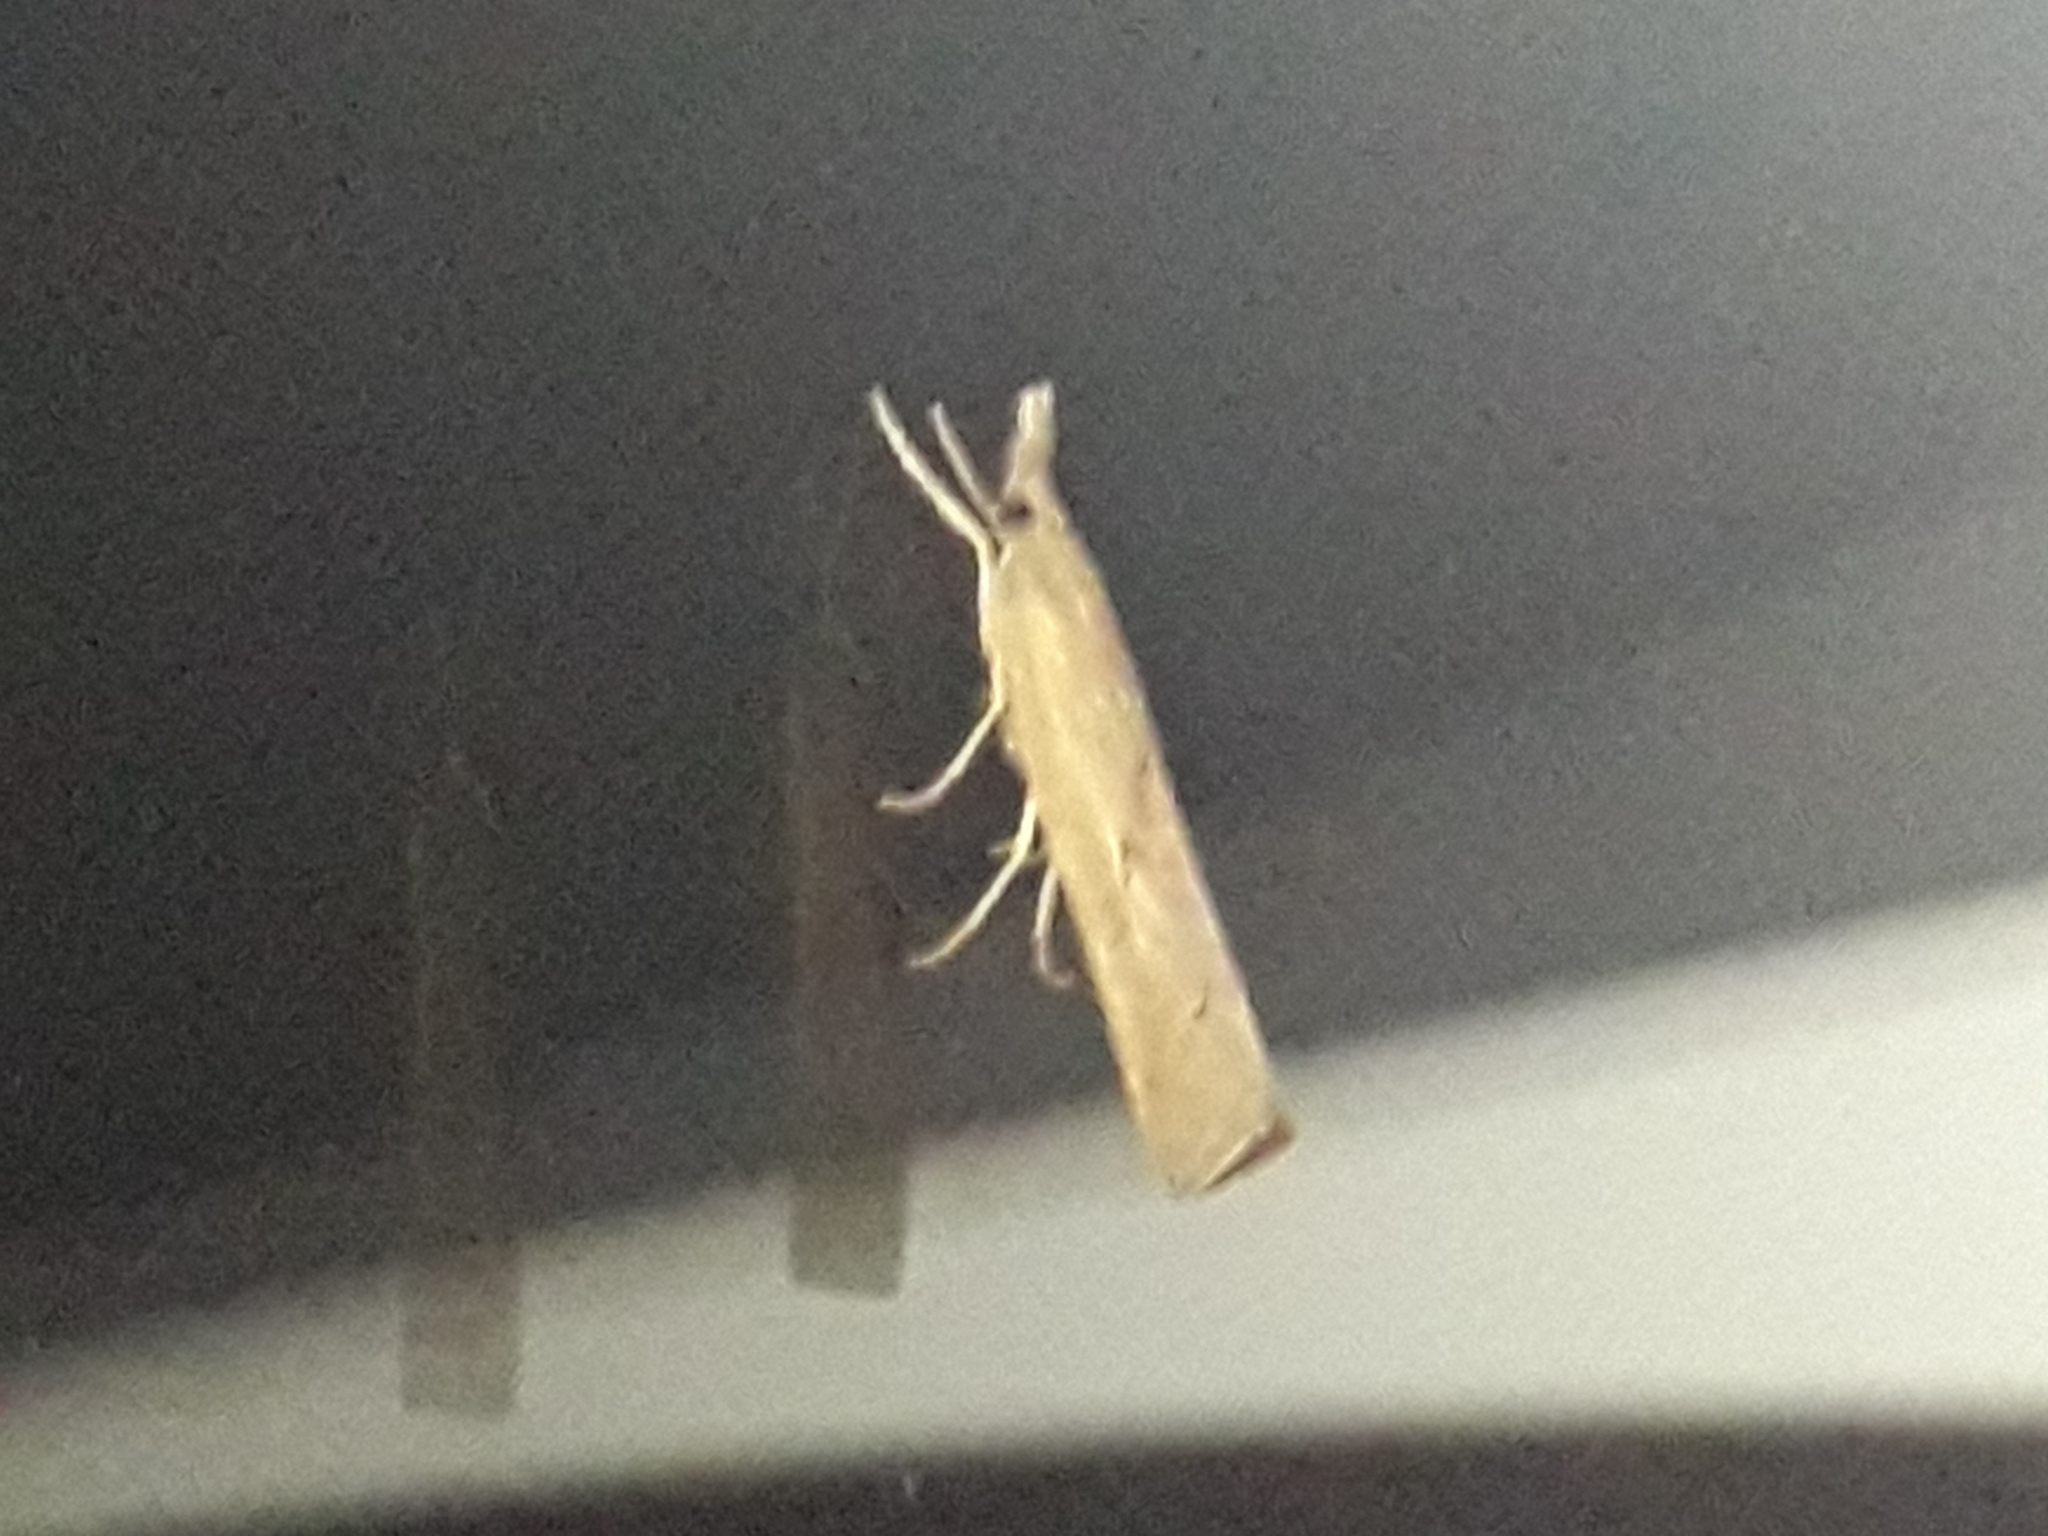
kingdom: Animalia
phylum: Arthropoda
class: Insecta
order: Lepidoptera
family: Crambidae
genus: Pediasia
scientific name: Pediasia contaminella
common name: Waste grass-veneer
